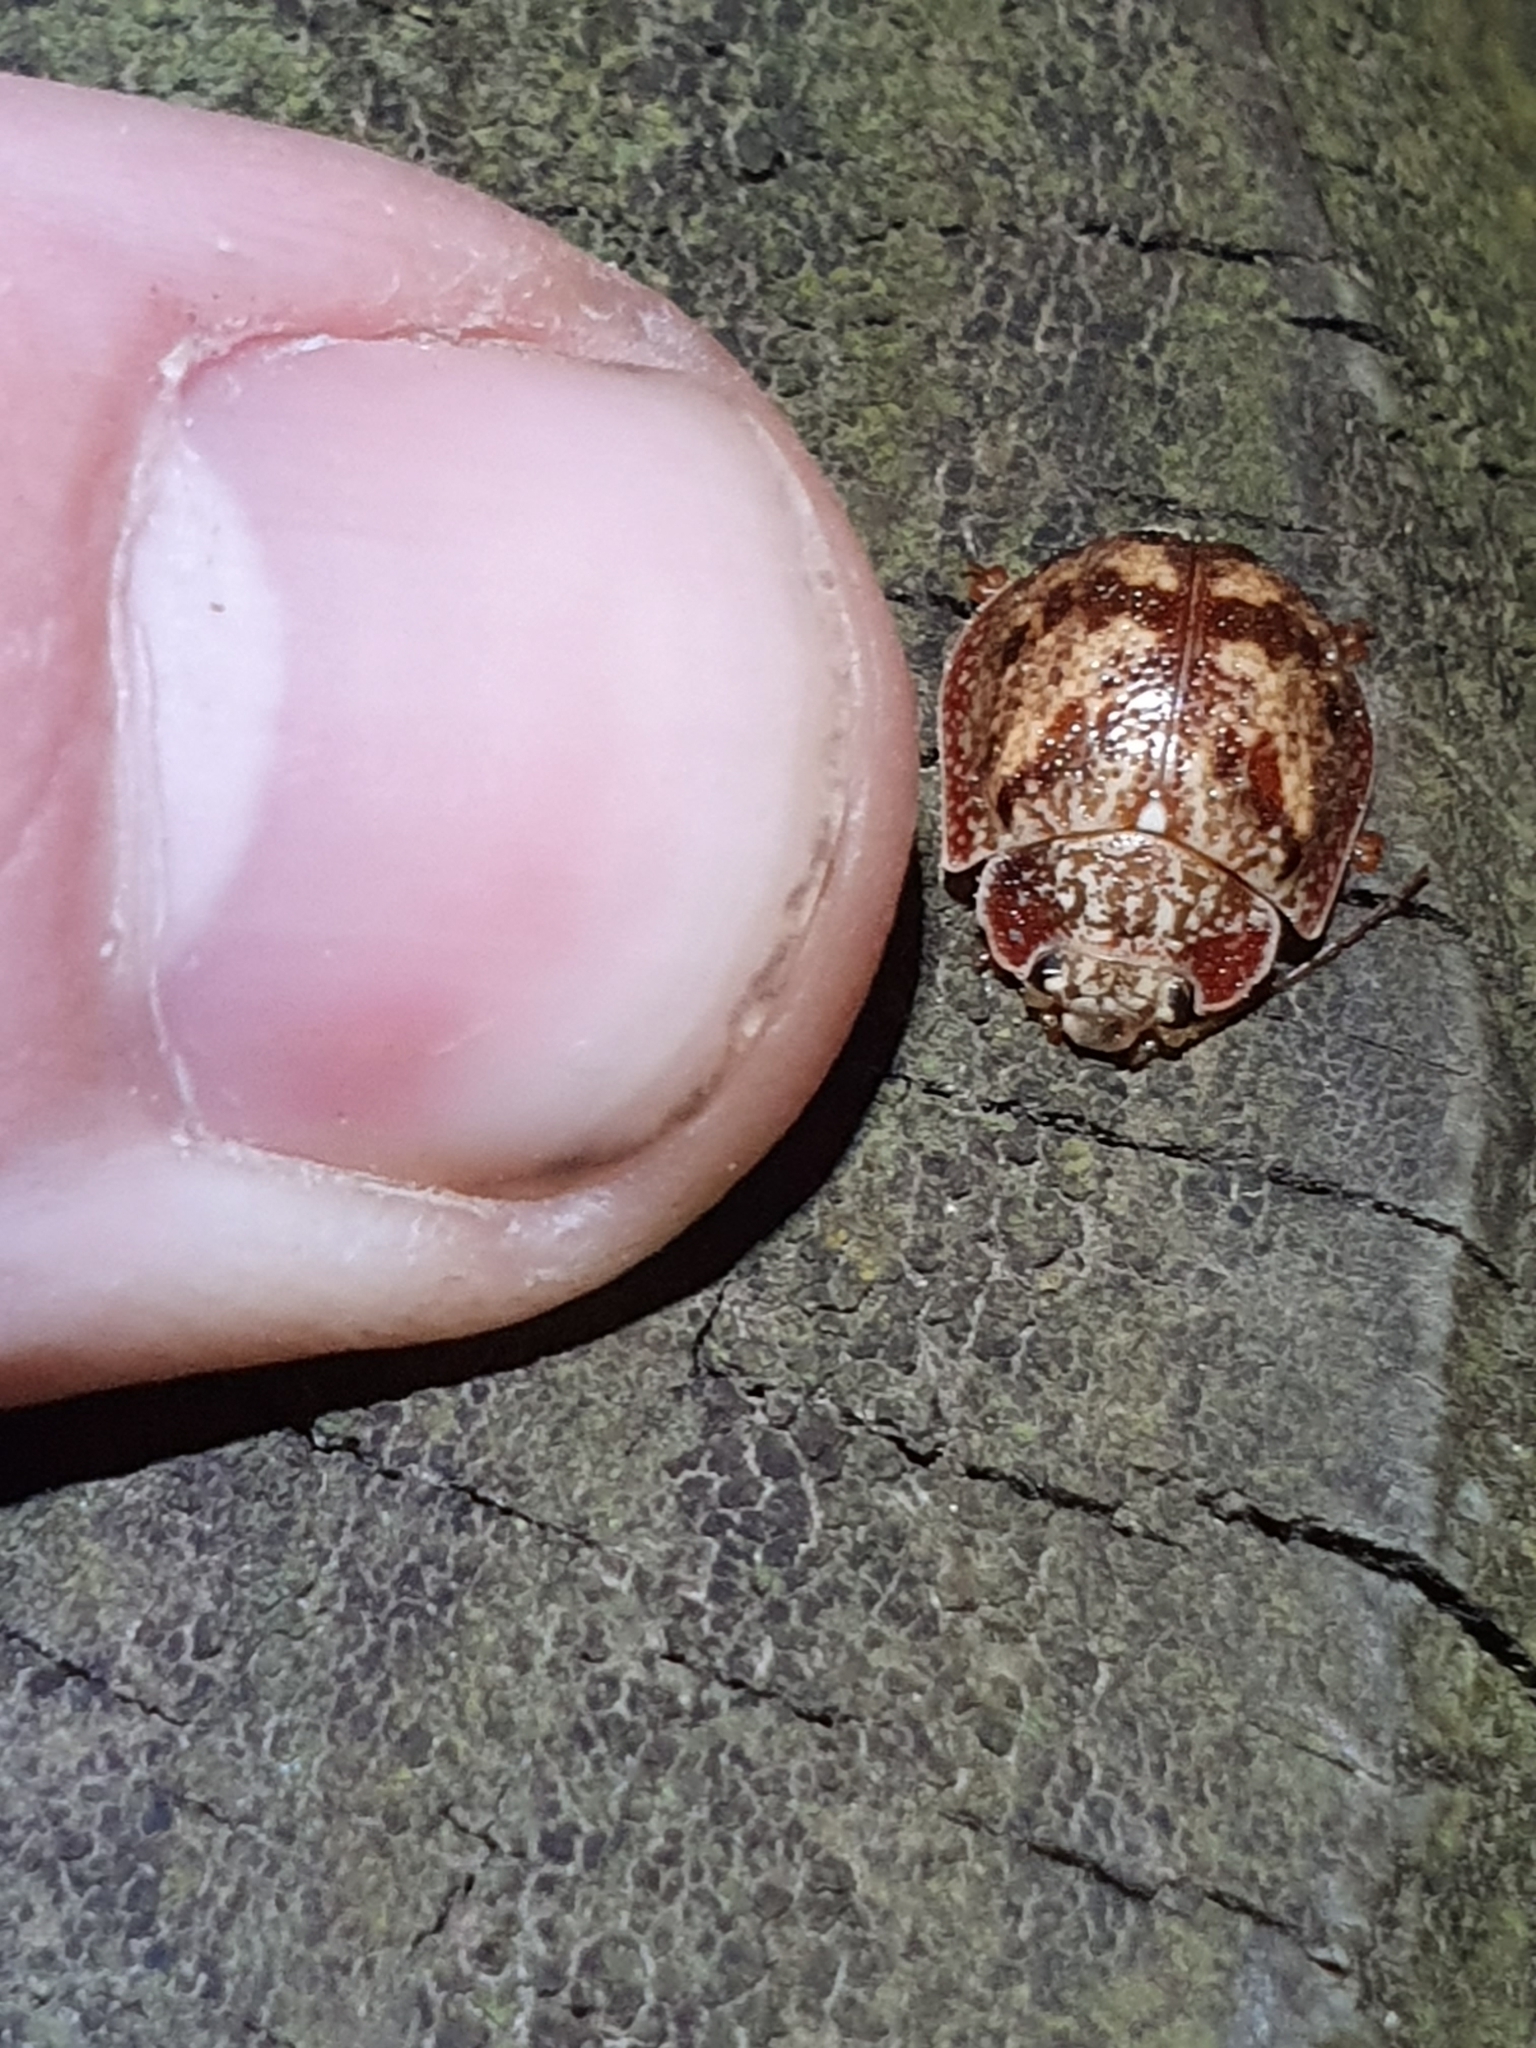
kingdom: Animalia
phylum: Arthropoda
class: Insecta
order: Coleoptera
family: Chrysomelidae
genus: Paropsis
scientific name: Paropsis charybdis
